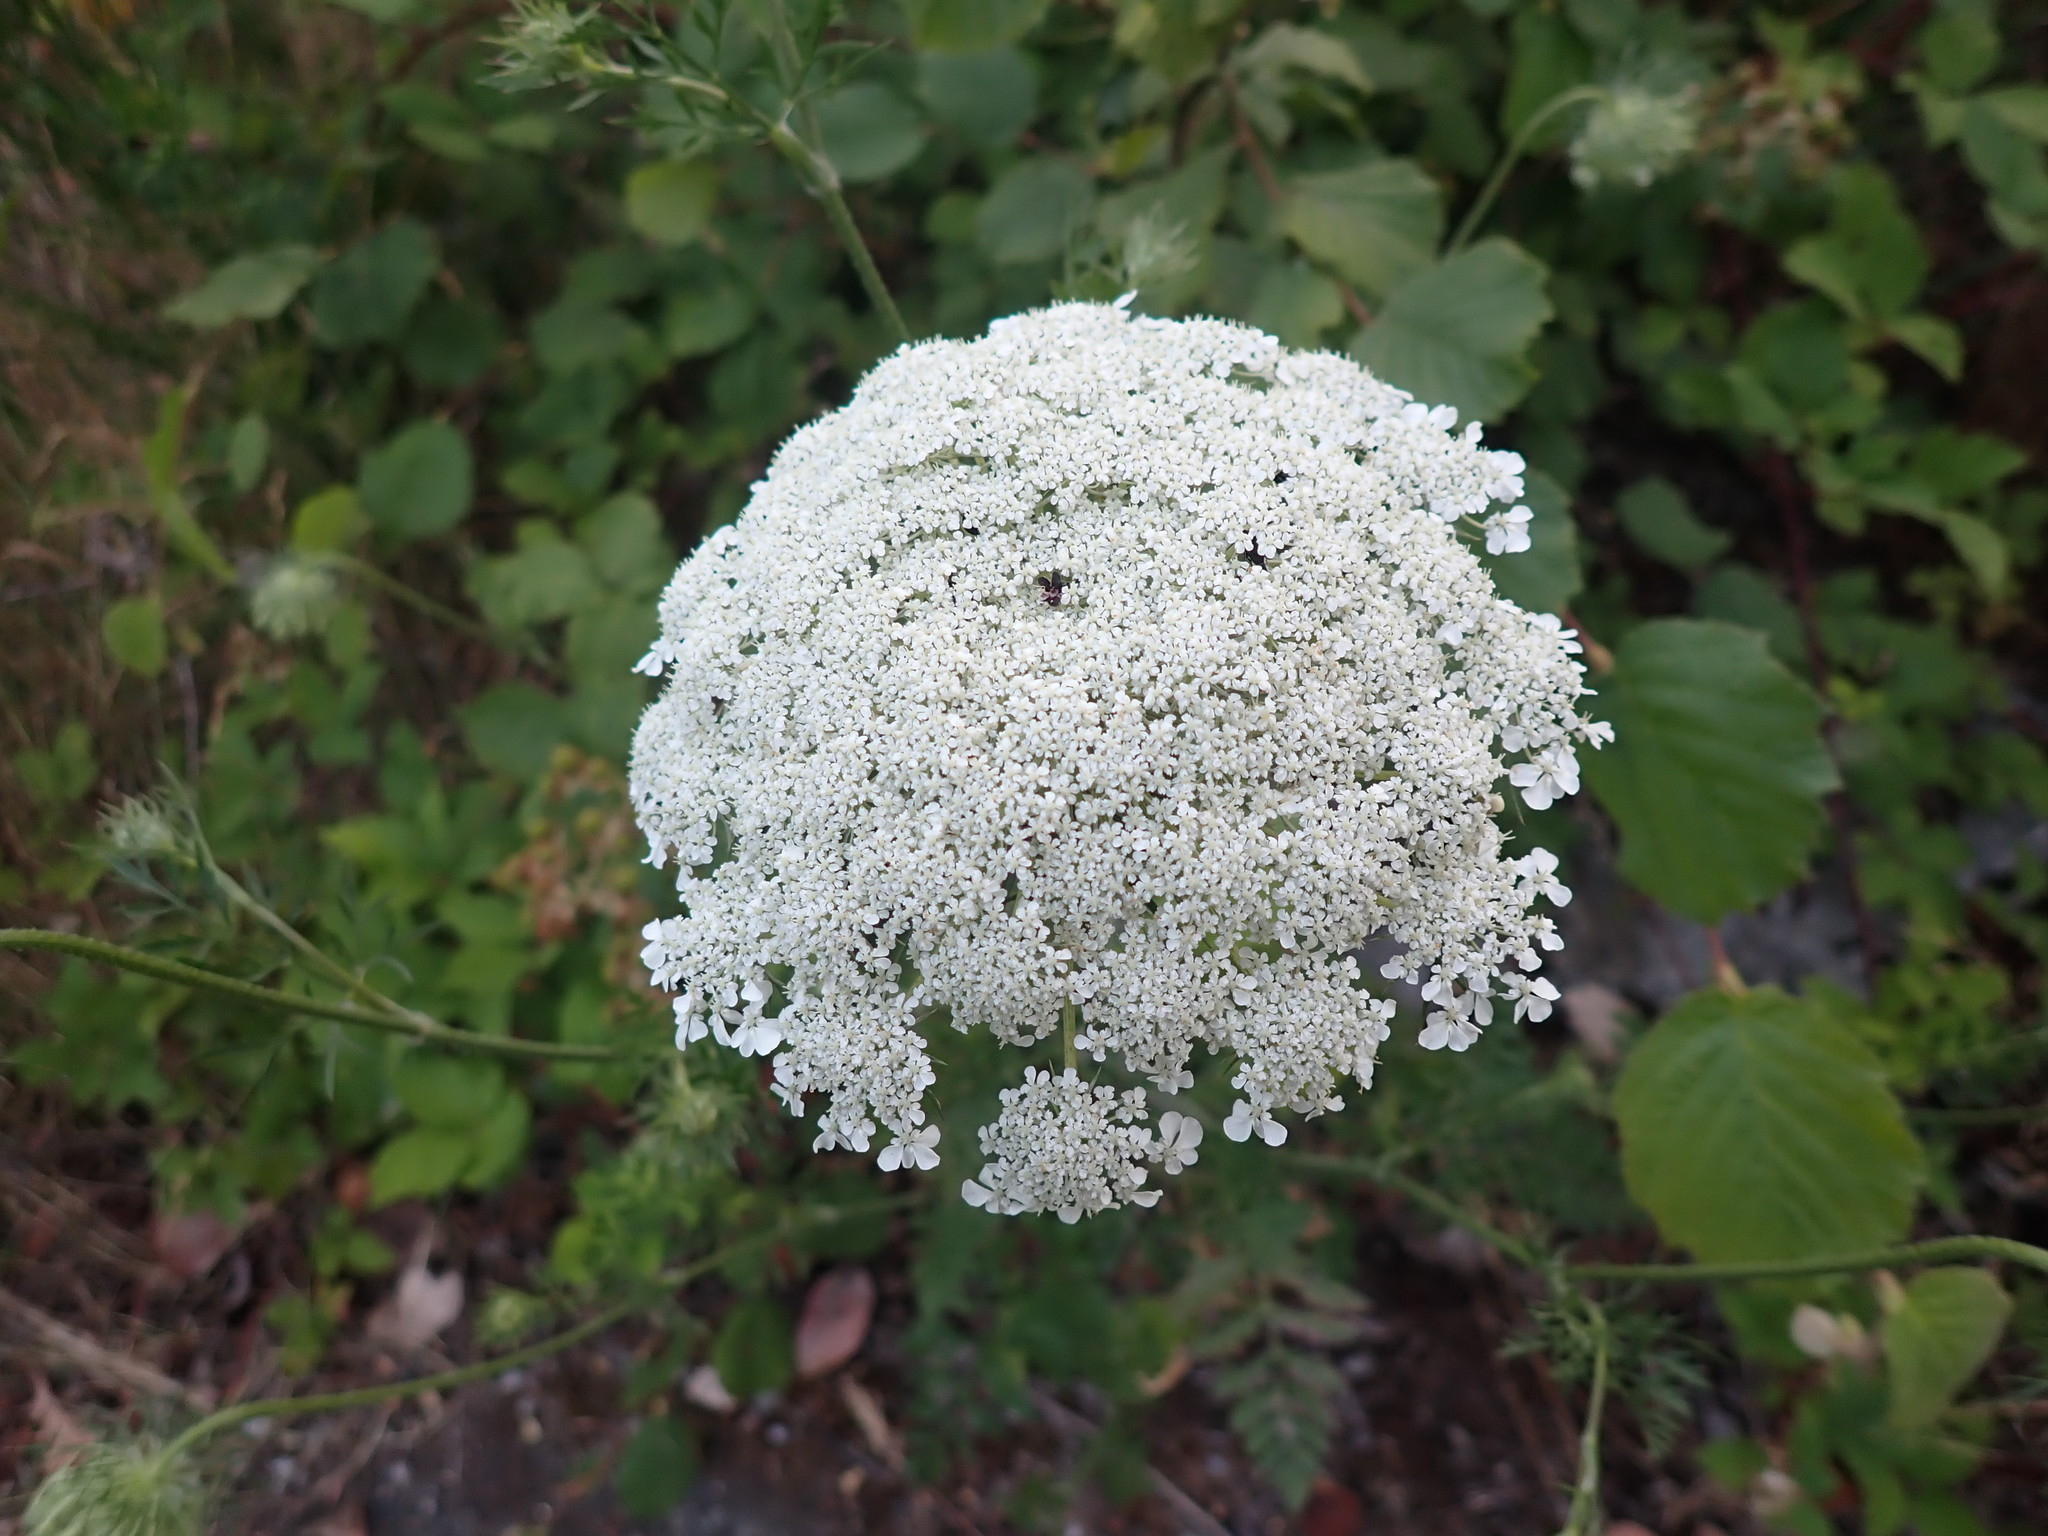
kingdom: Plantae
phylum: Tracheophyta
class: Magnoliopsida
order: Apiales
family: Apiaceae
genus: Daucus
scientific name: Daucus carota
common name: Wild carrot
